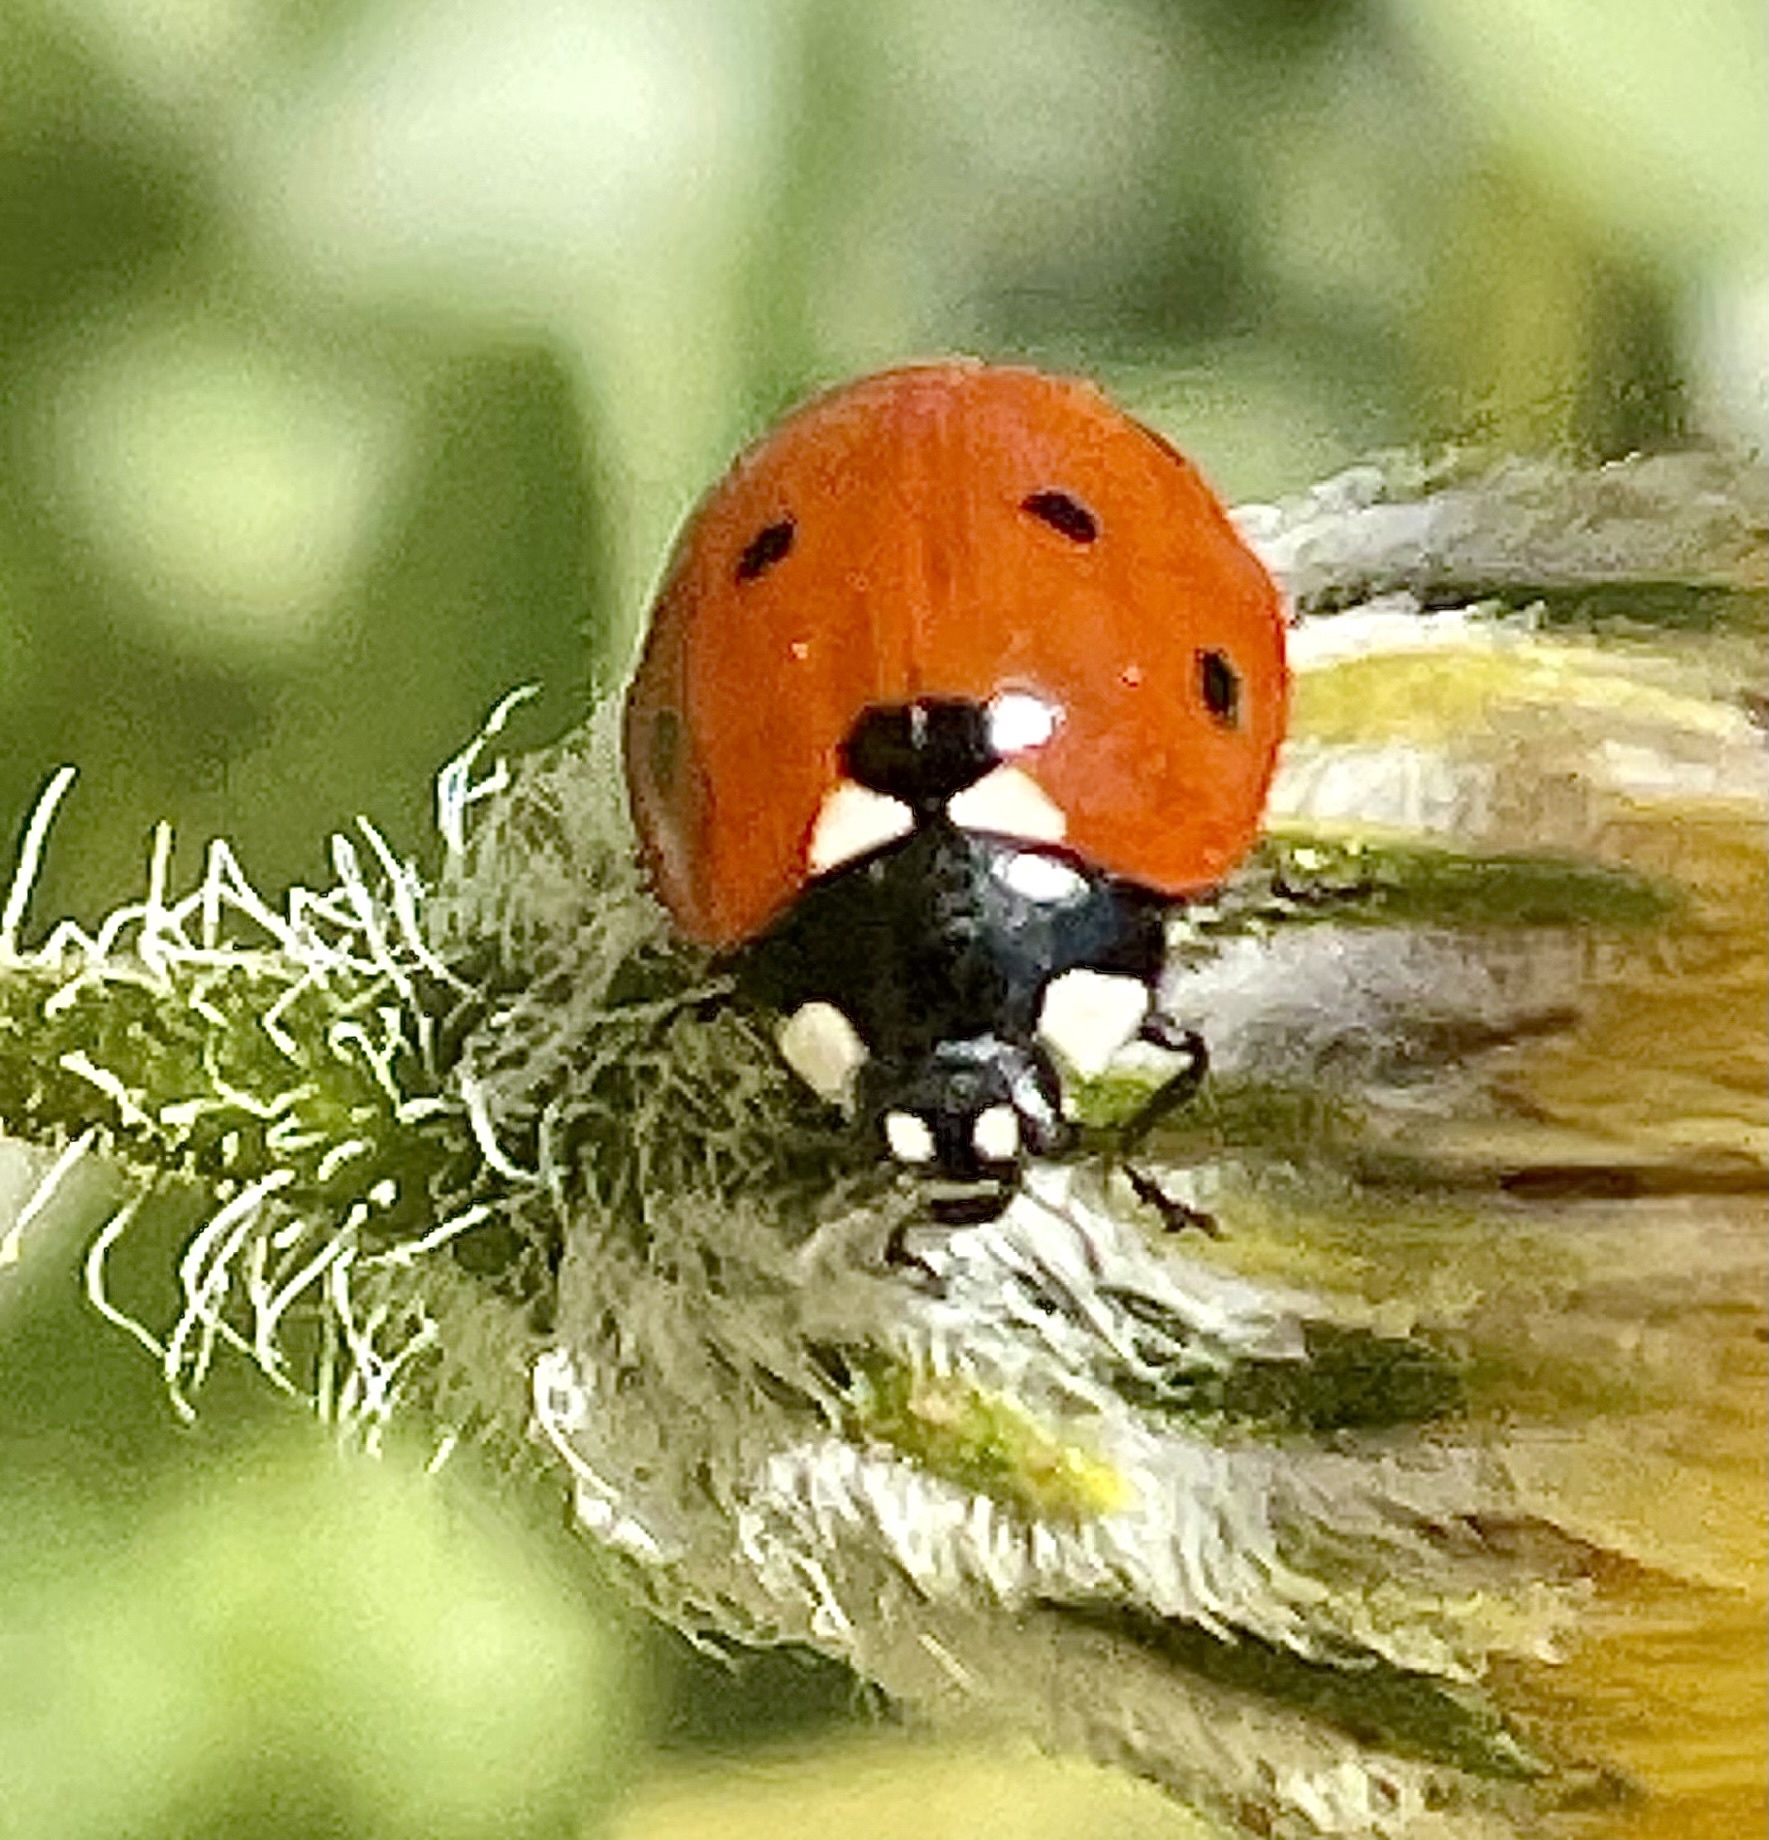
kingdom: Animalia
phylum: Arthropoda
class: Insecta
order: Coleoptera
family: Coccinellidae
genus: Coccinella
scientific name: Coccinella septempunctata
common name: Sevenspotted lady beetle
